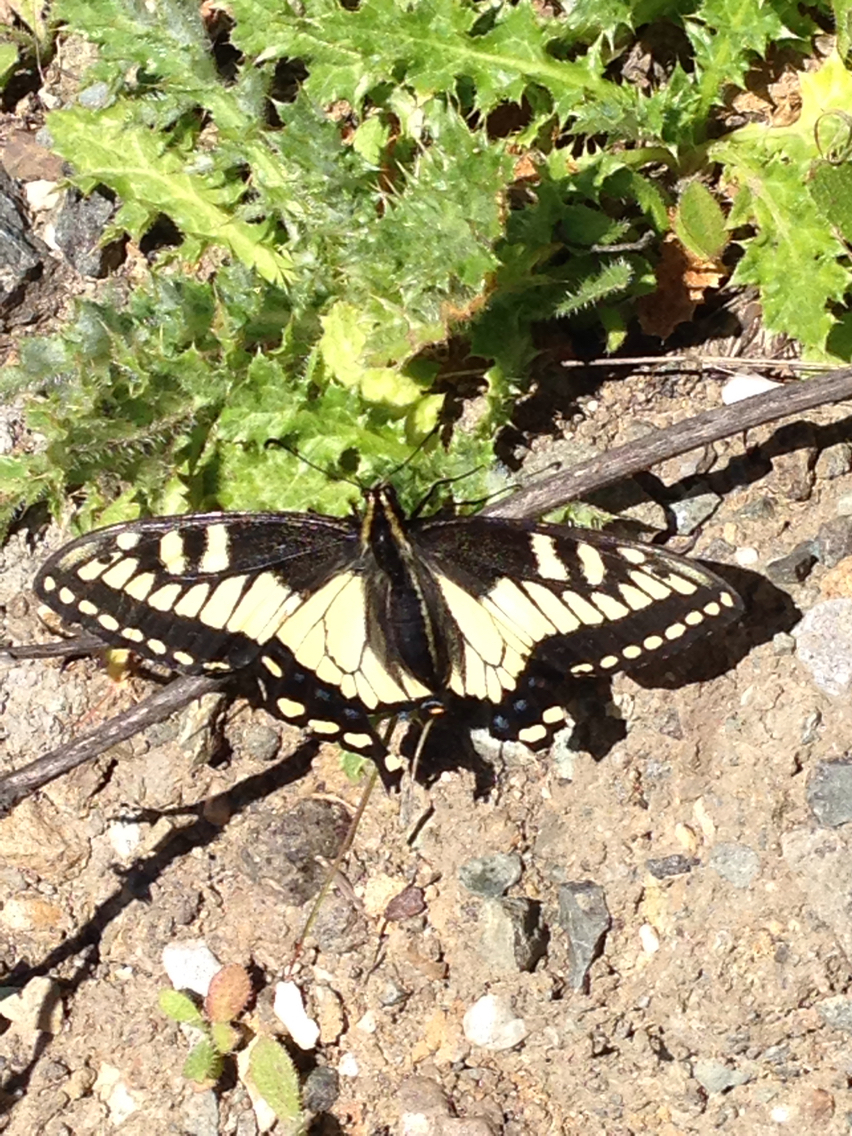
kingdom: Animalia
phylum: Arthropoda
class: Insecta
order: Lepidoptera
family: Papilionidae
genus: Papilio
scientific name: Papilio zelicaon
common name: Anise swallowtail
